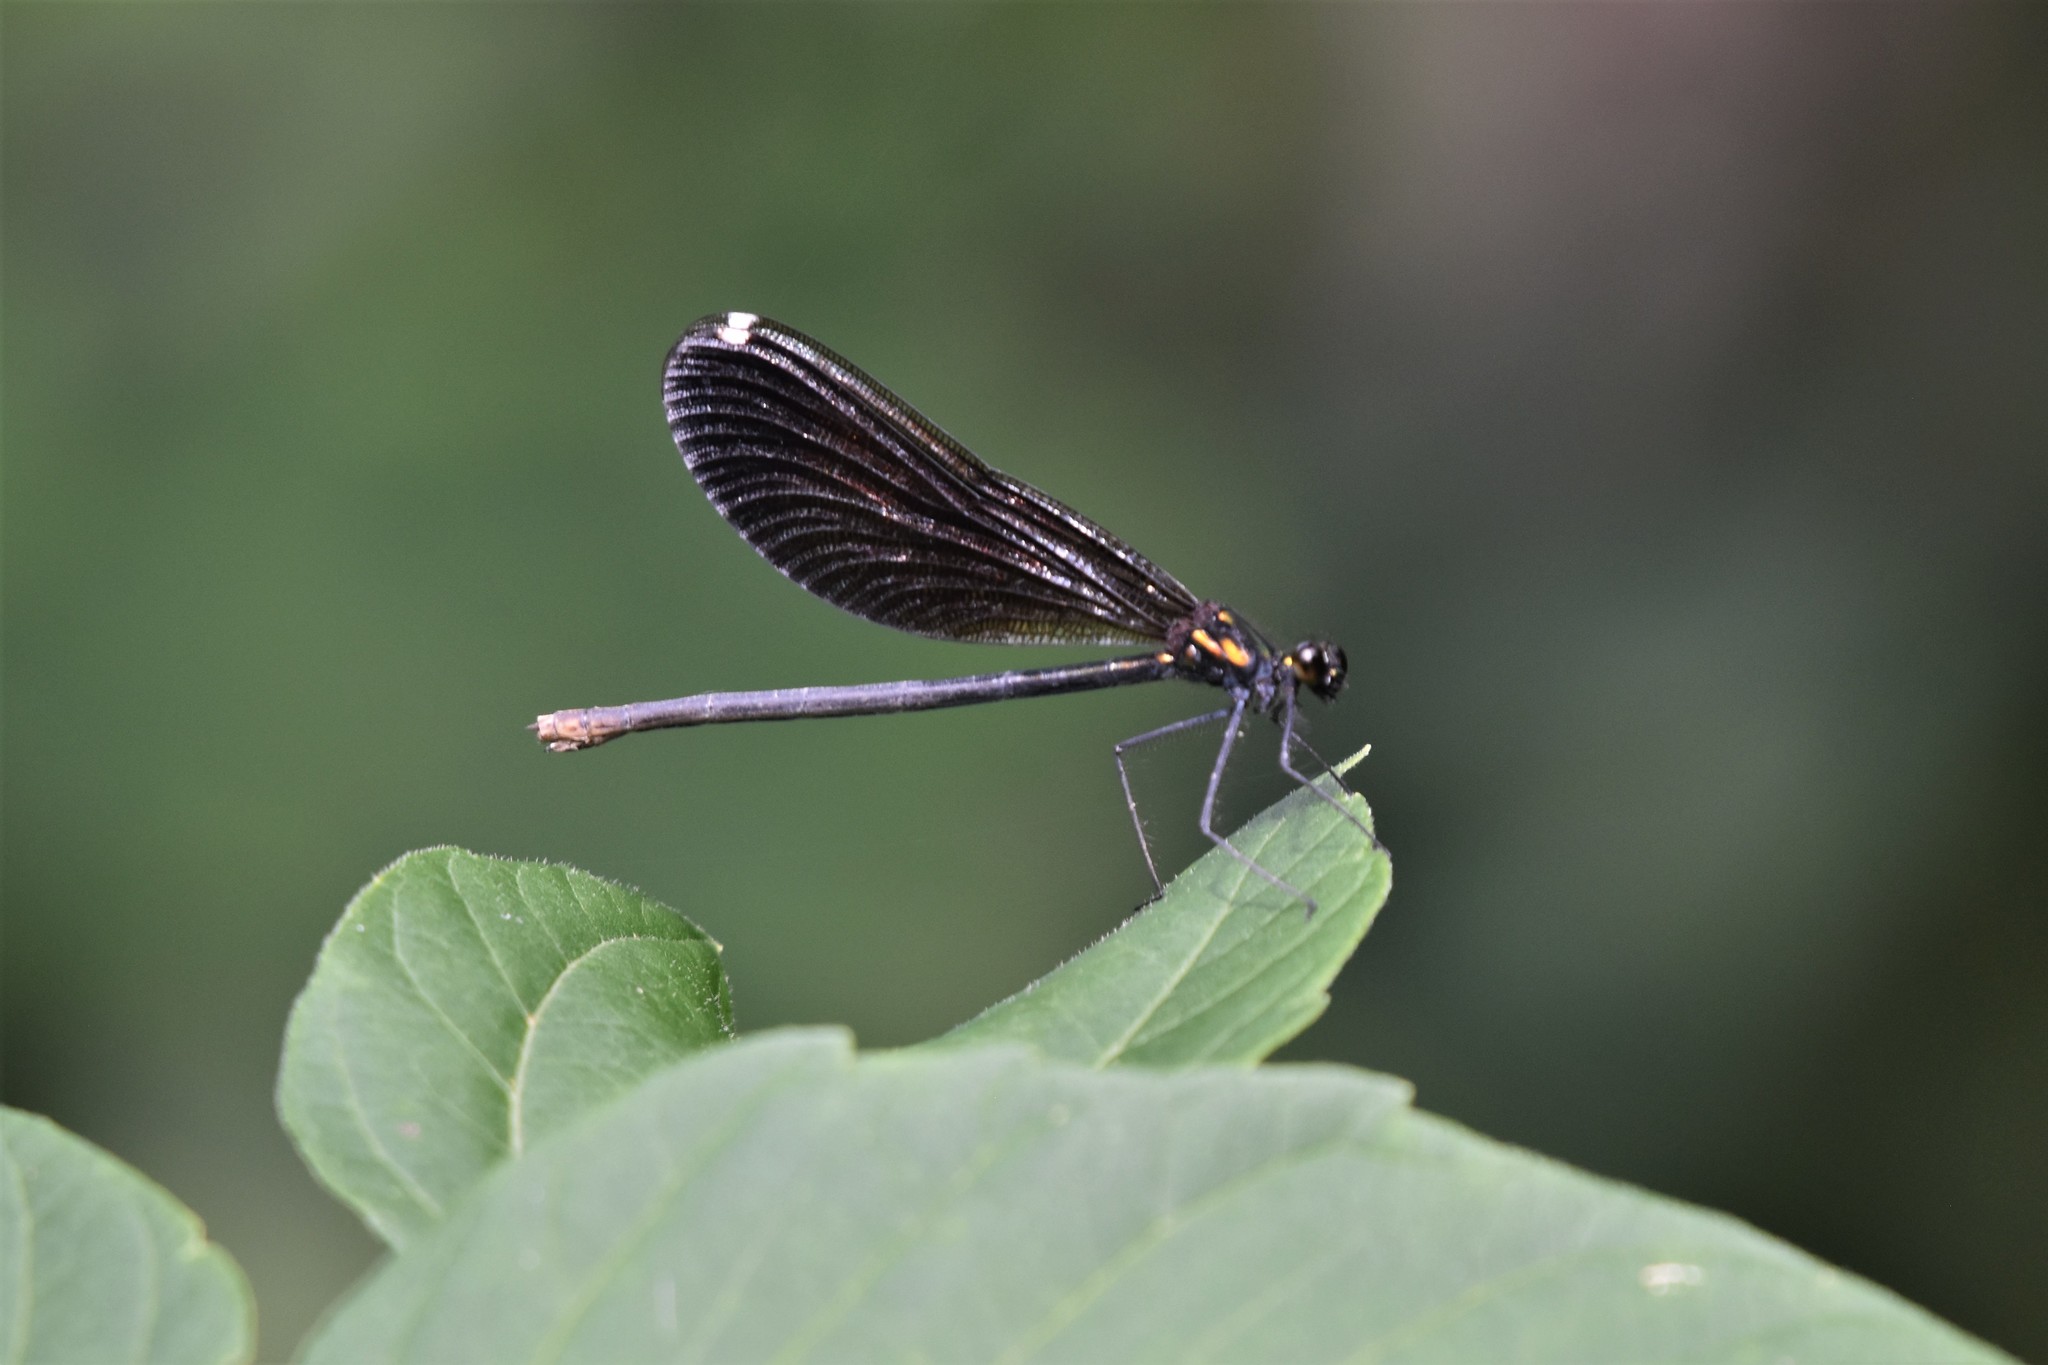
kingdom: Animalia
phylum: Arthropoda
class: Insecta
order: Odonata
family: Calopterygidae
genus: Calopteryx
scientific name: Calopteryx maculata
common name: Ebony jewelwing
